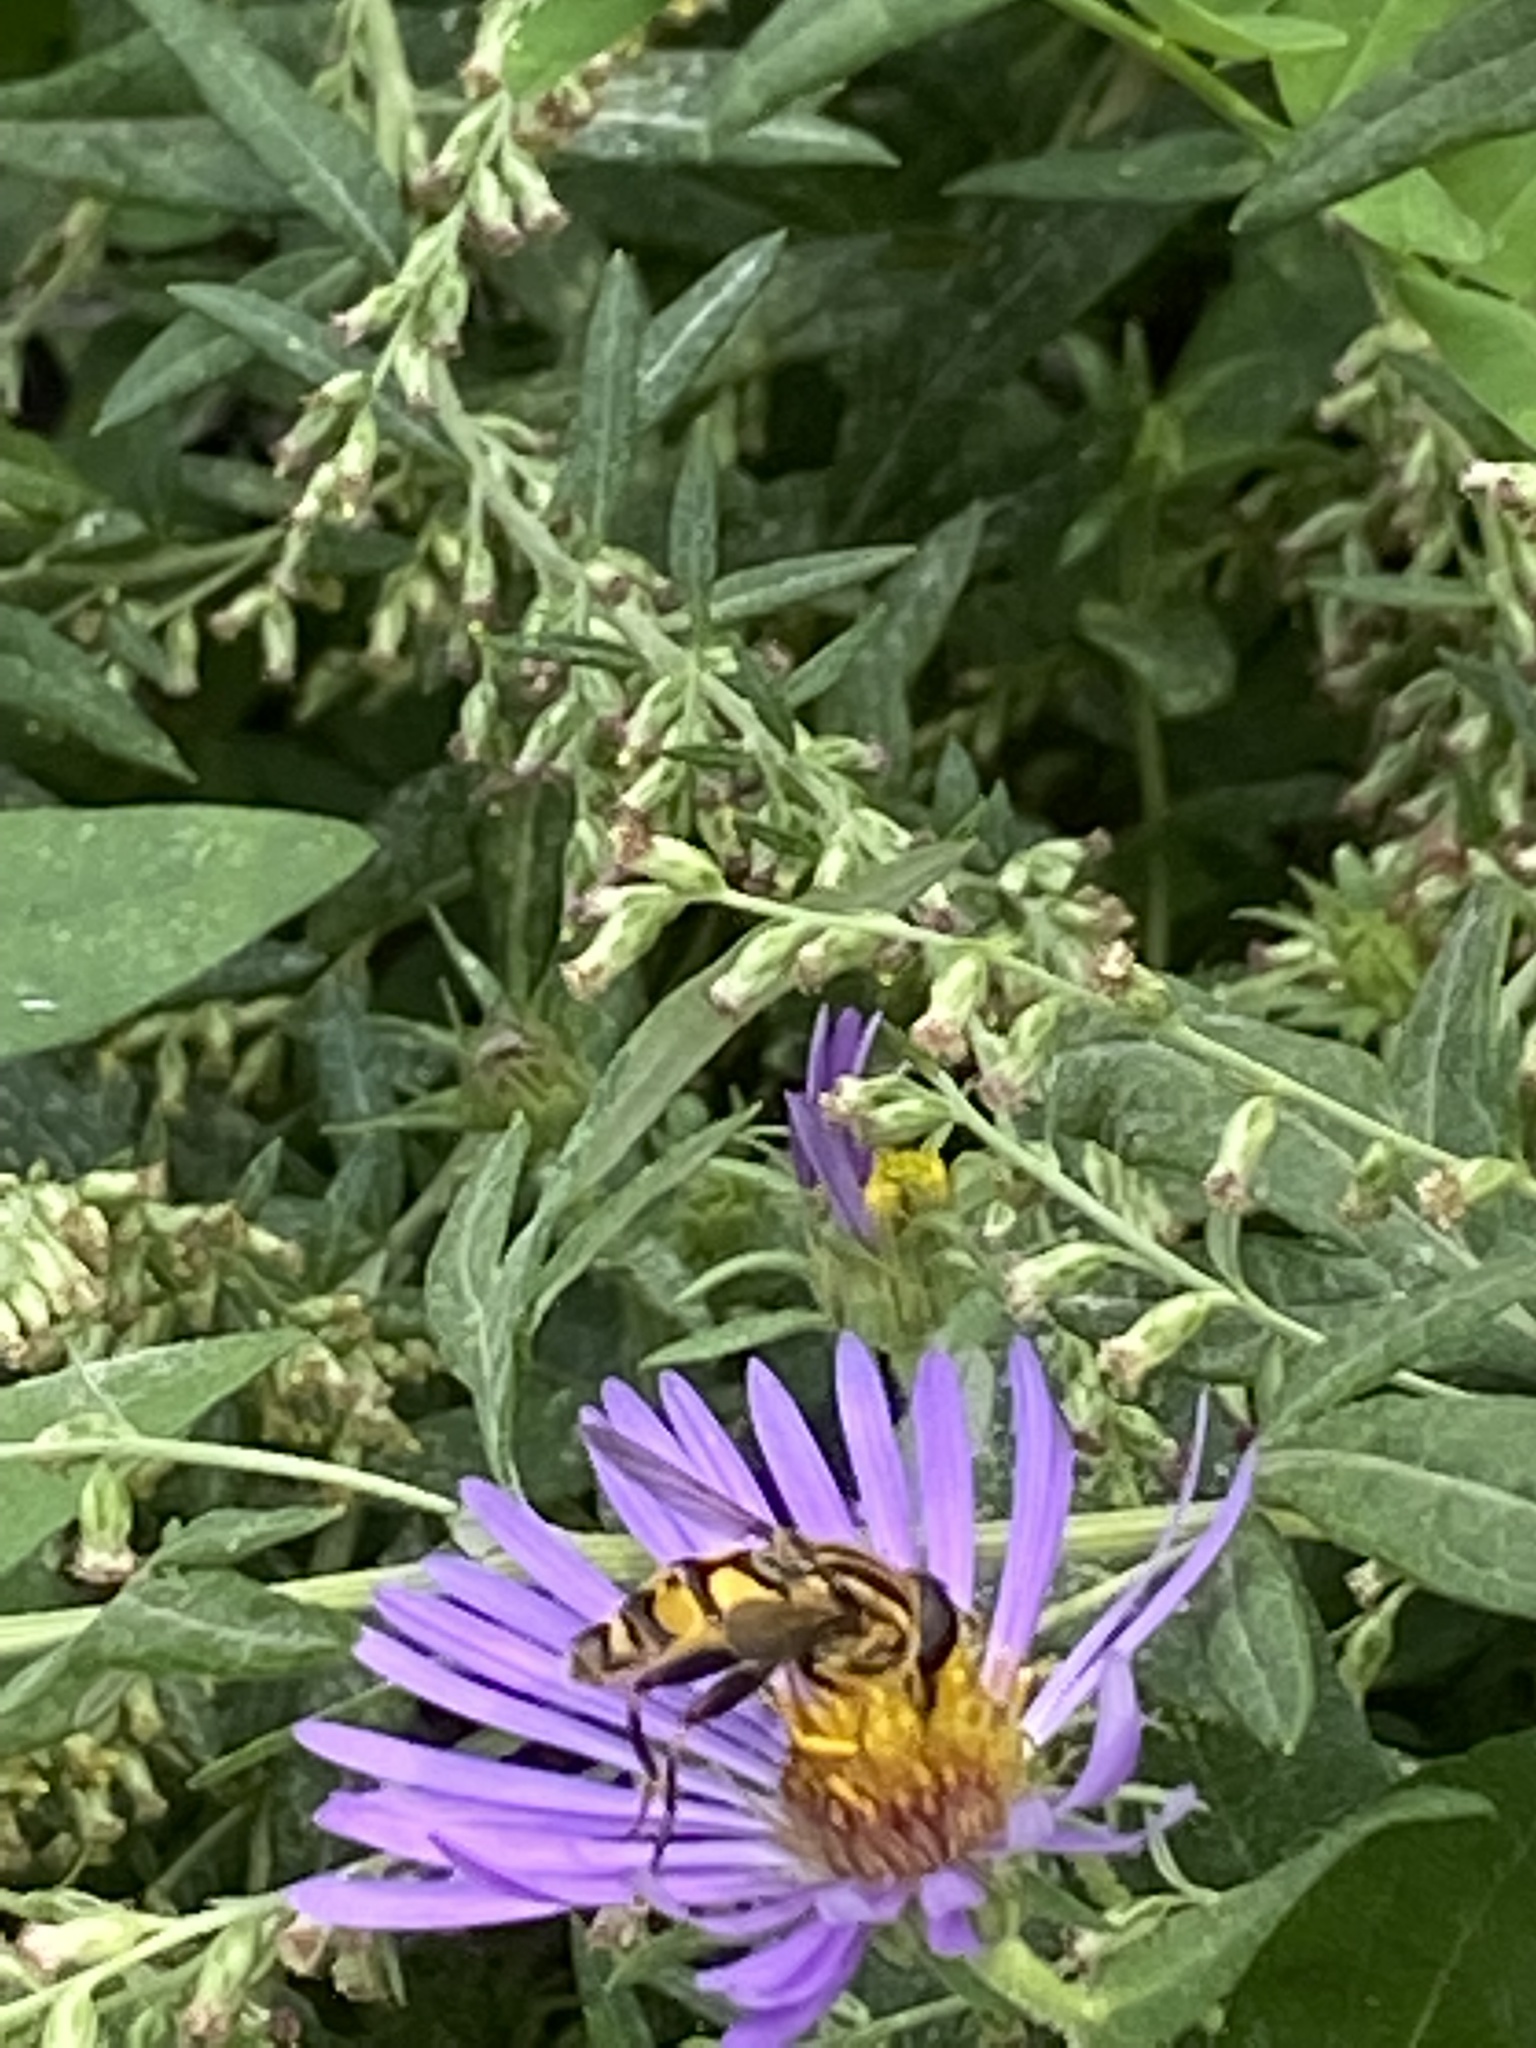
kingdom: Animalia
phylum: Arthropoda
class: Insecta
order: Diptera
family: Syrphidae
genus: Helophilus
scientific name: Helophilus fasciatus
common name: Narrow-headed marsh fly
